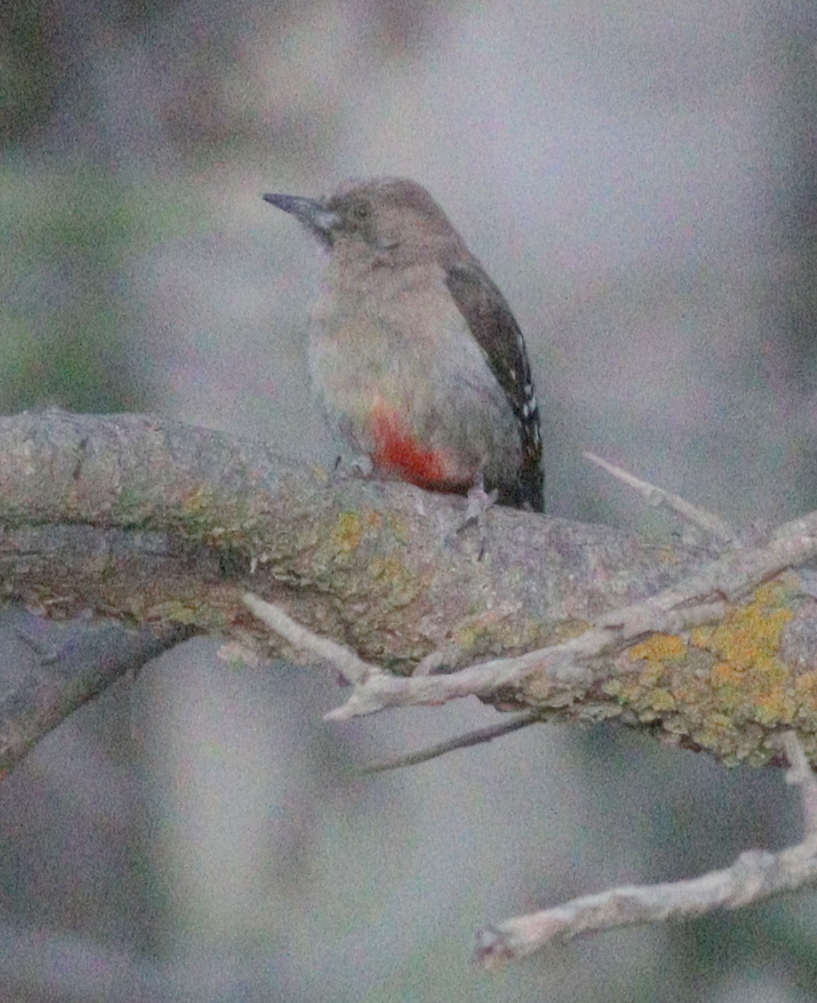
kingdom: Animalia
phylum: Chordata
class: Aves
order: Piciformes
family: Picidae
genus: Dendrocoptes
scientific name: Dendrocoptes dorae
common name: Arabian woodpecker
